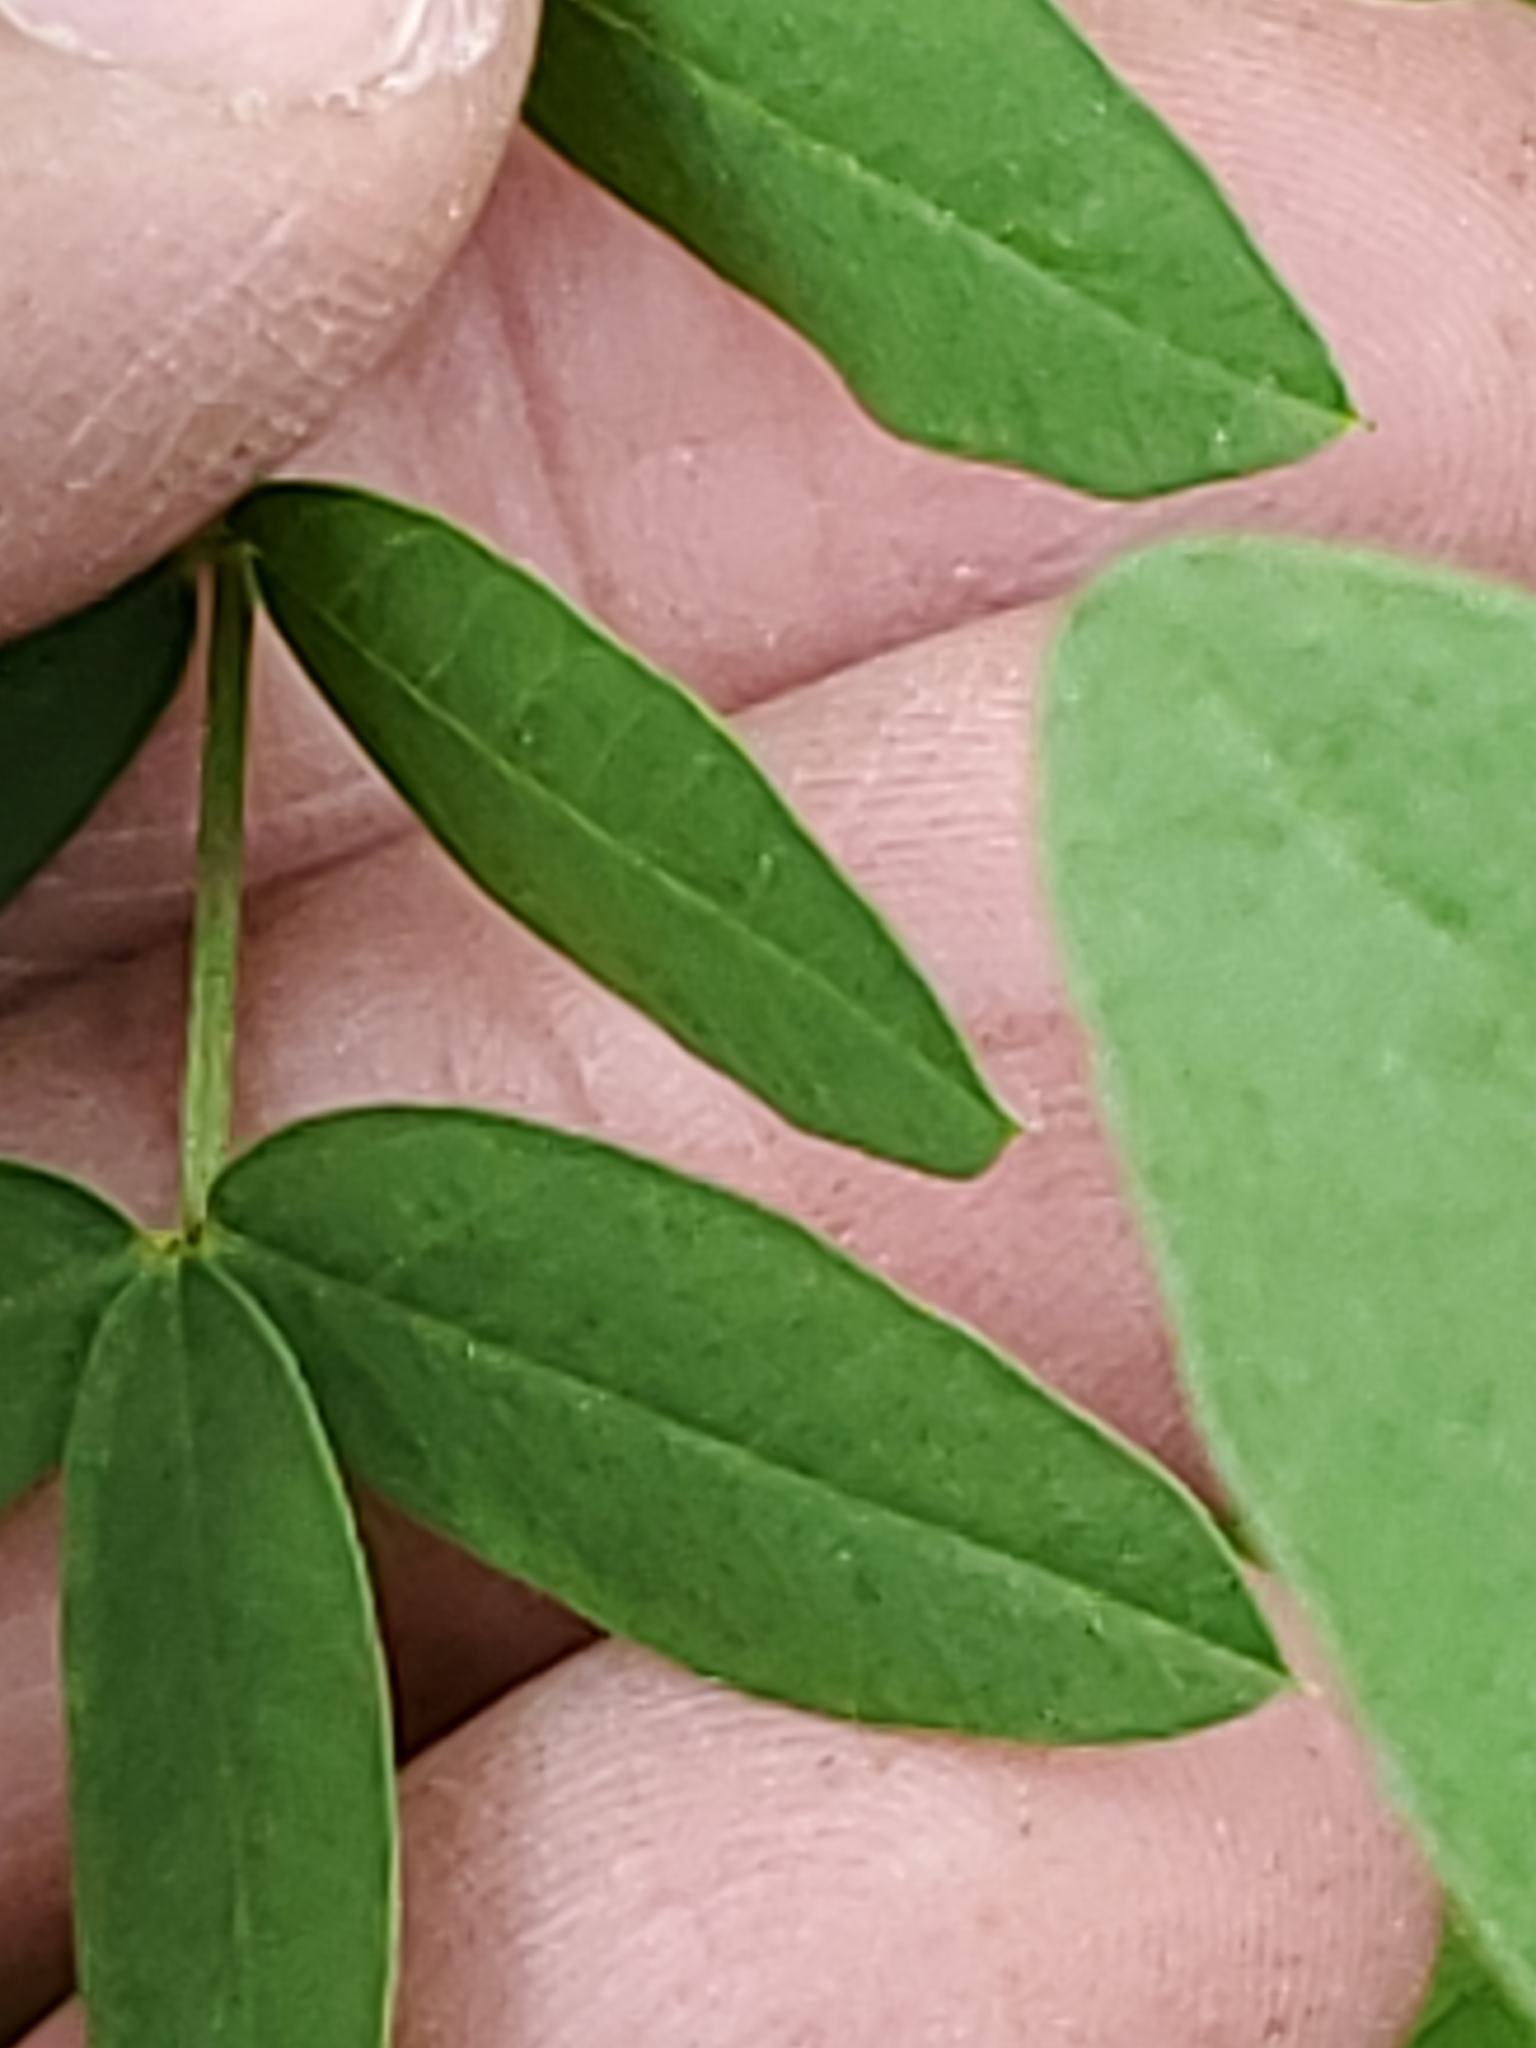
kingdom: Plantae
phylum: Tracheophyta
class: Magnoliopsida
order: Fabales
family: Fabaceae
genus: Hedysarum
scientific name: Hedysarum sulphurescens
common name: Sulphur hedysarum
